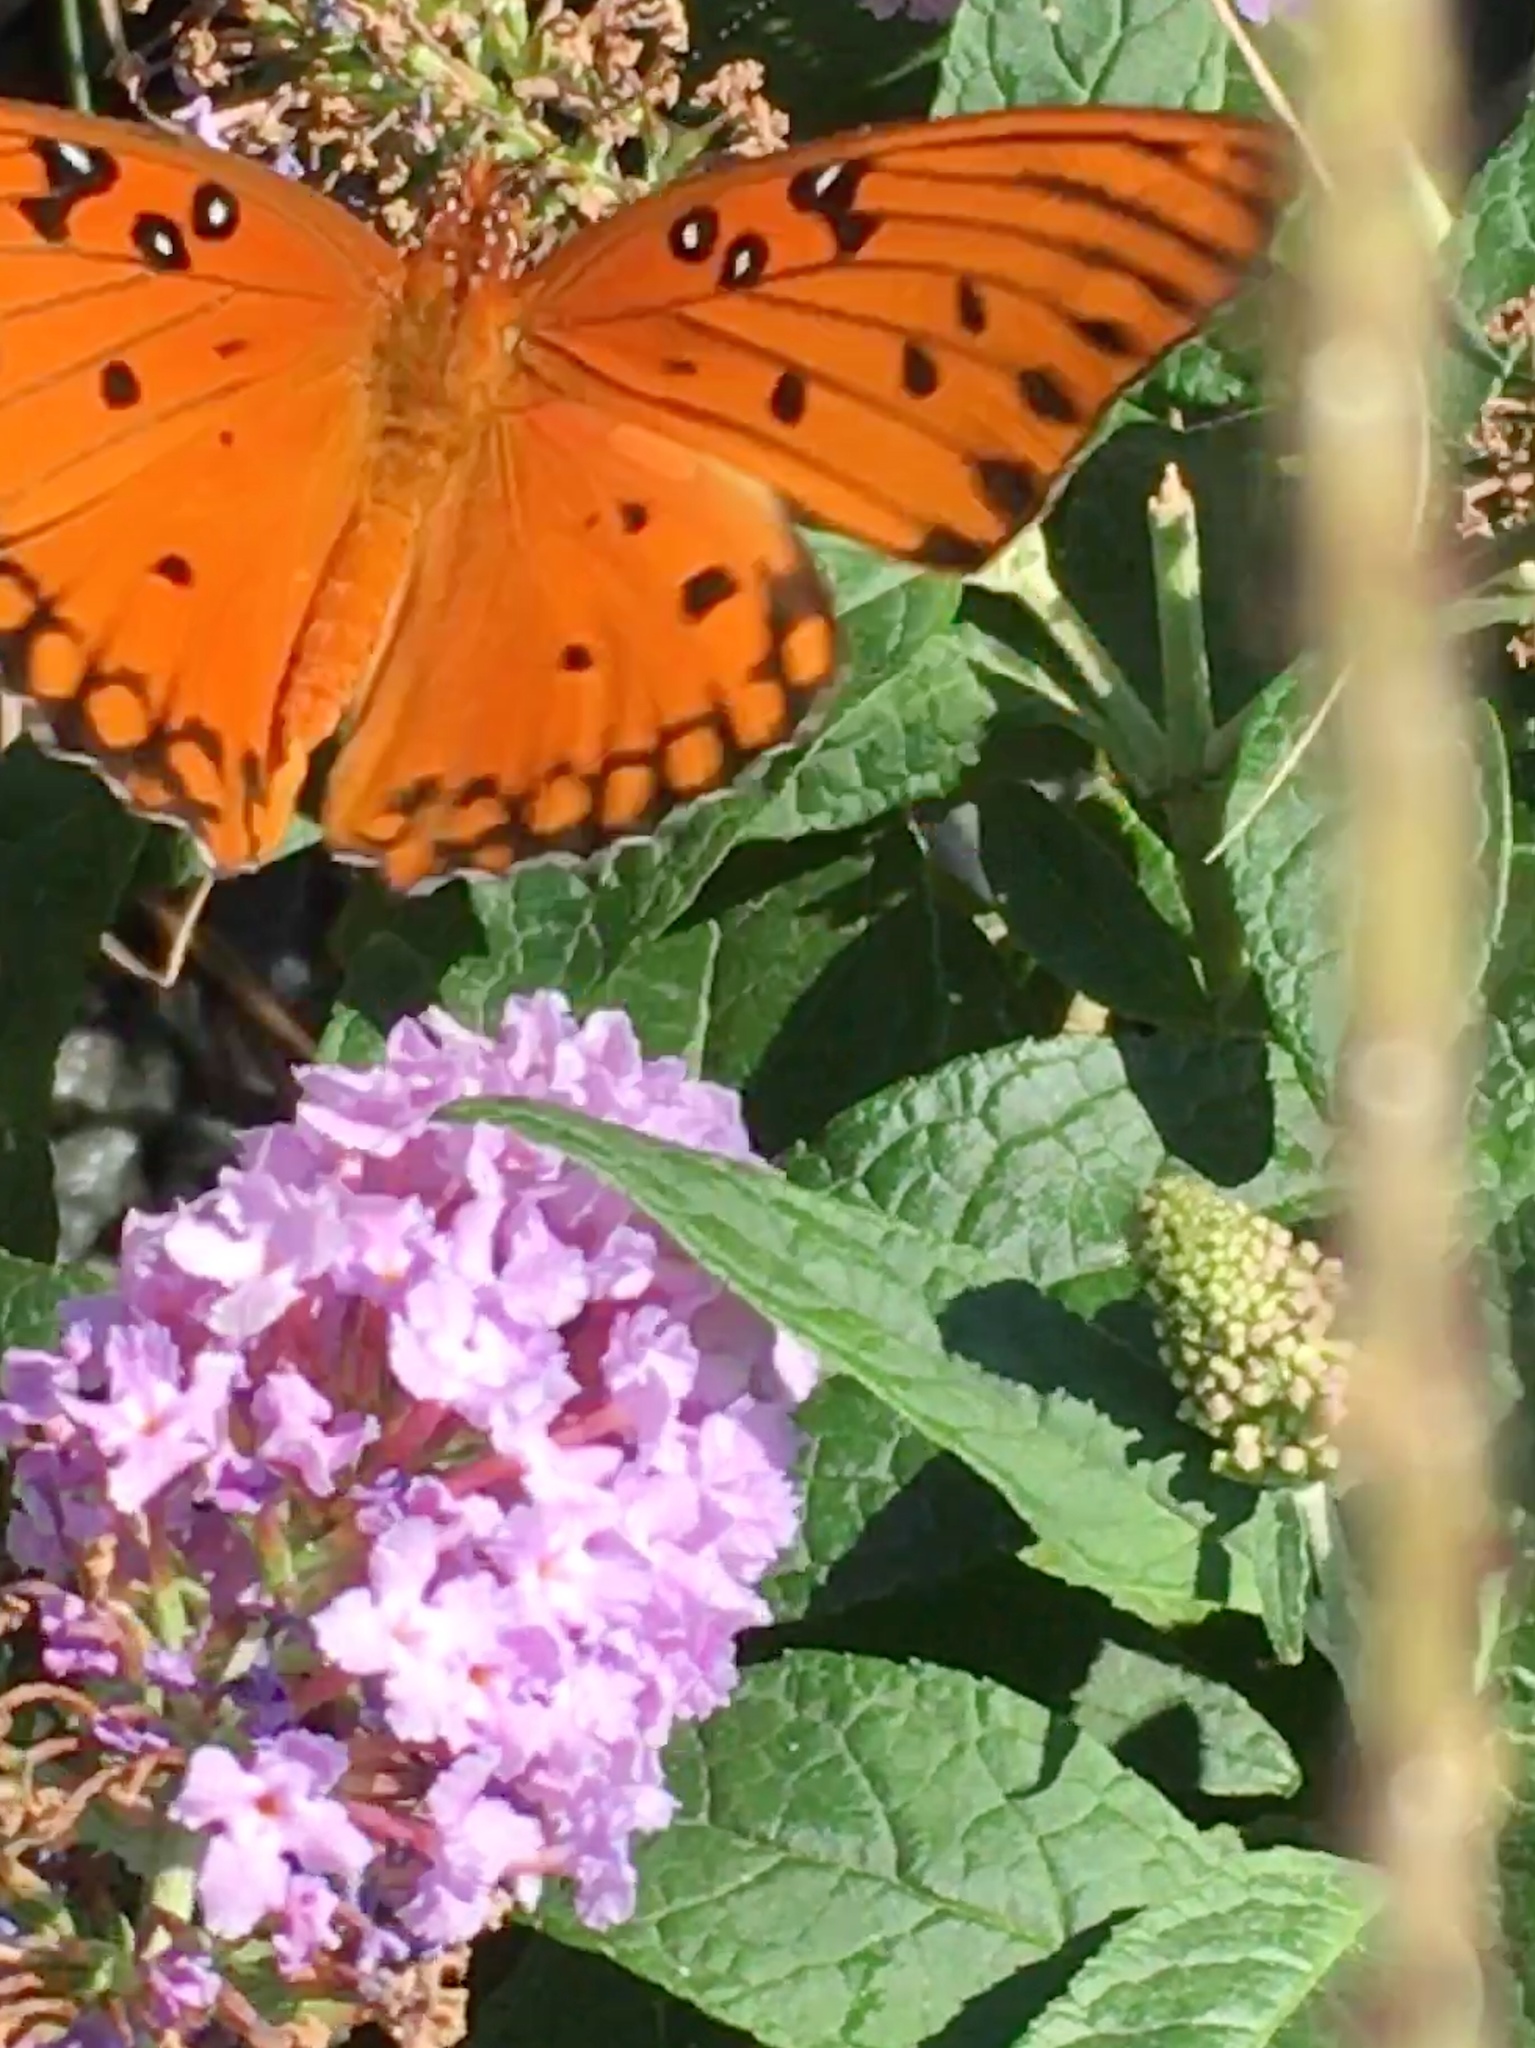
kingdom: Animalia
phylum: Arthropoda
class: Insecta
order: Lepidoptera
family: Nymphalidae
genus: Dione
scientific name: Dione vanillae
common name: Gulf fritillary
